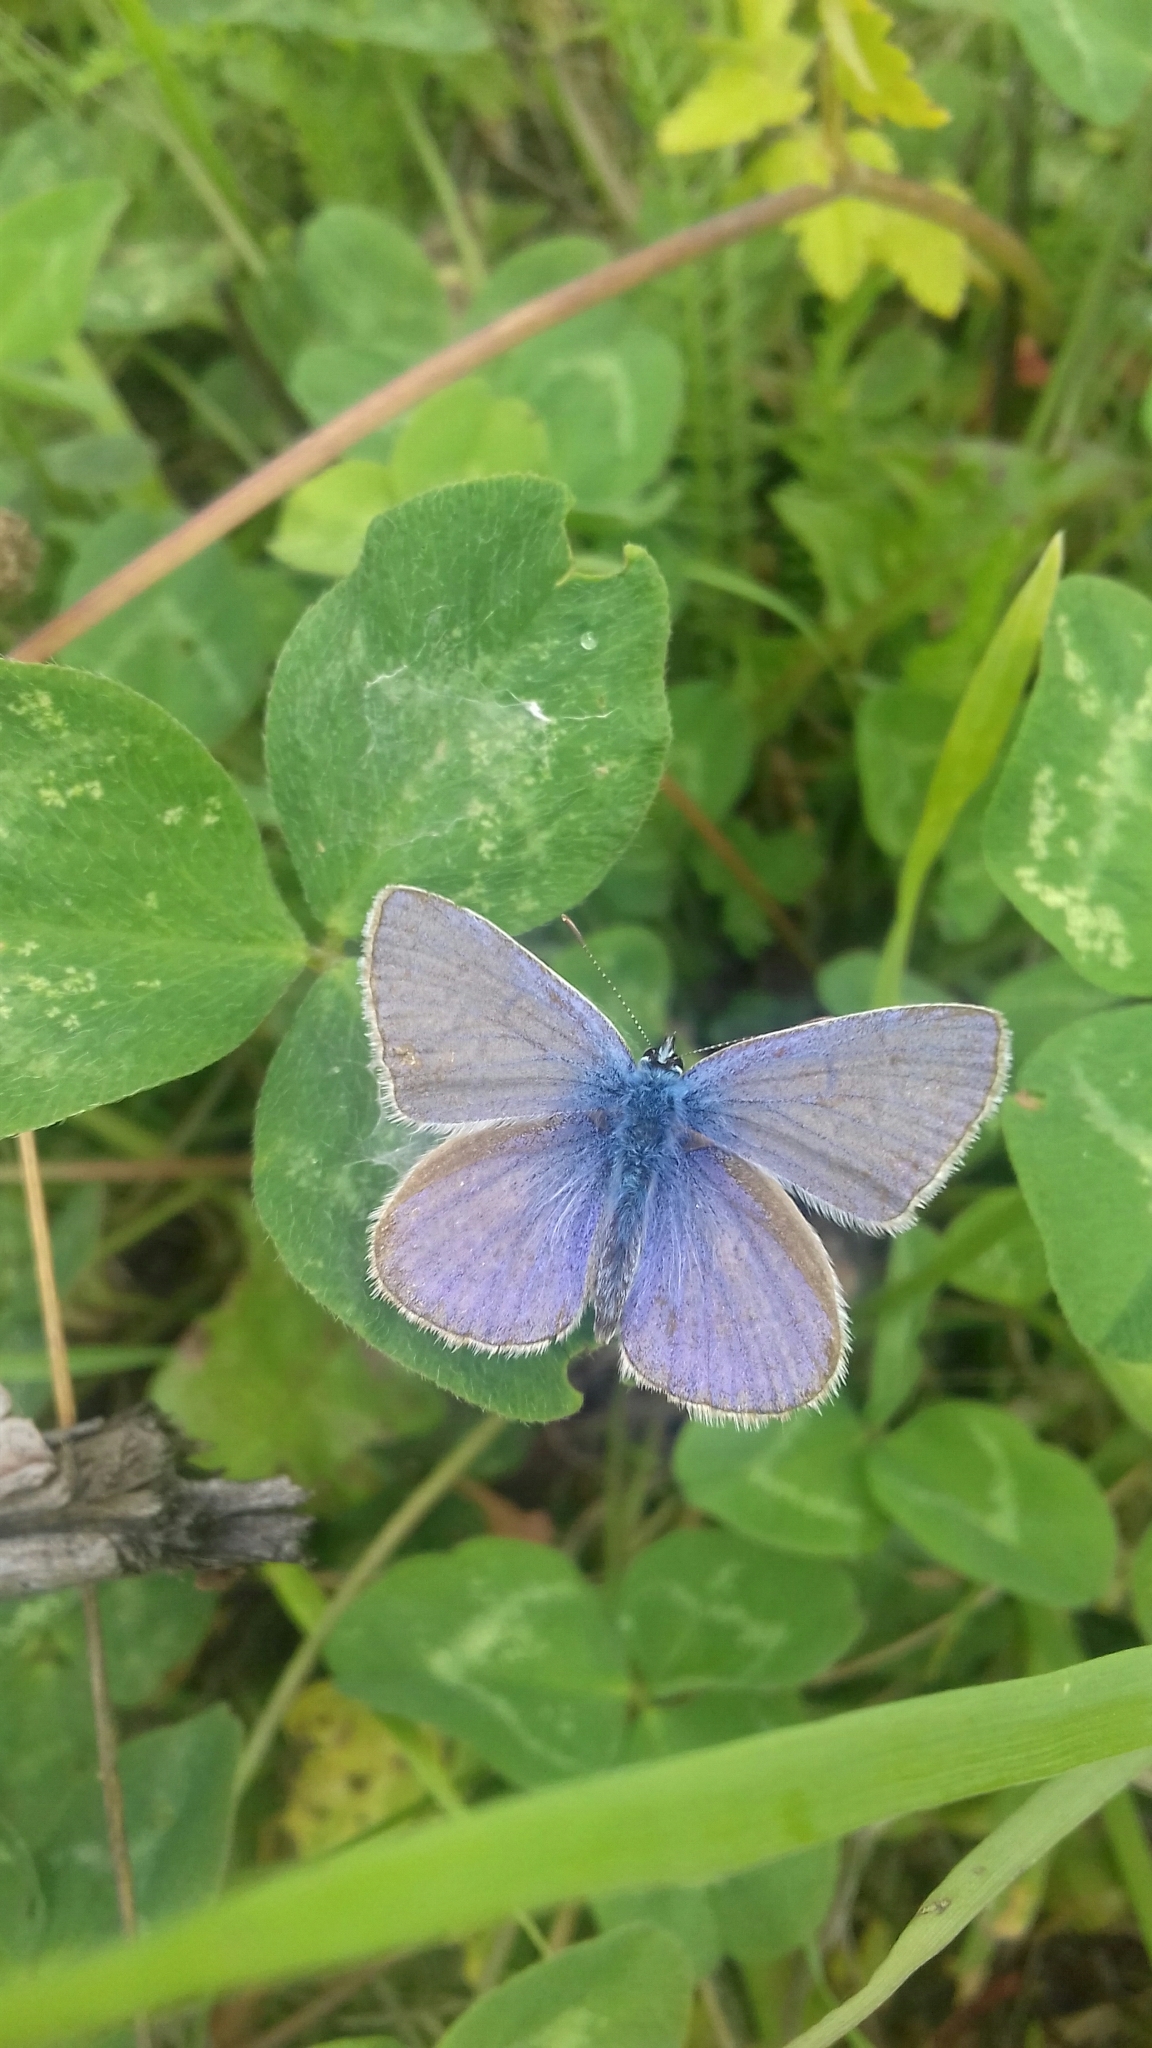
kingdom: Animalia
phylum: Arthropoda
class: Insecta
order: Lepidoptera
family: Lycaenidae
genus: Polyommatus
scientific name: Polyommatus icarus
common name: Common blue
